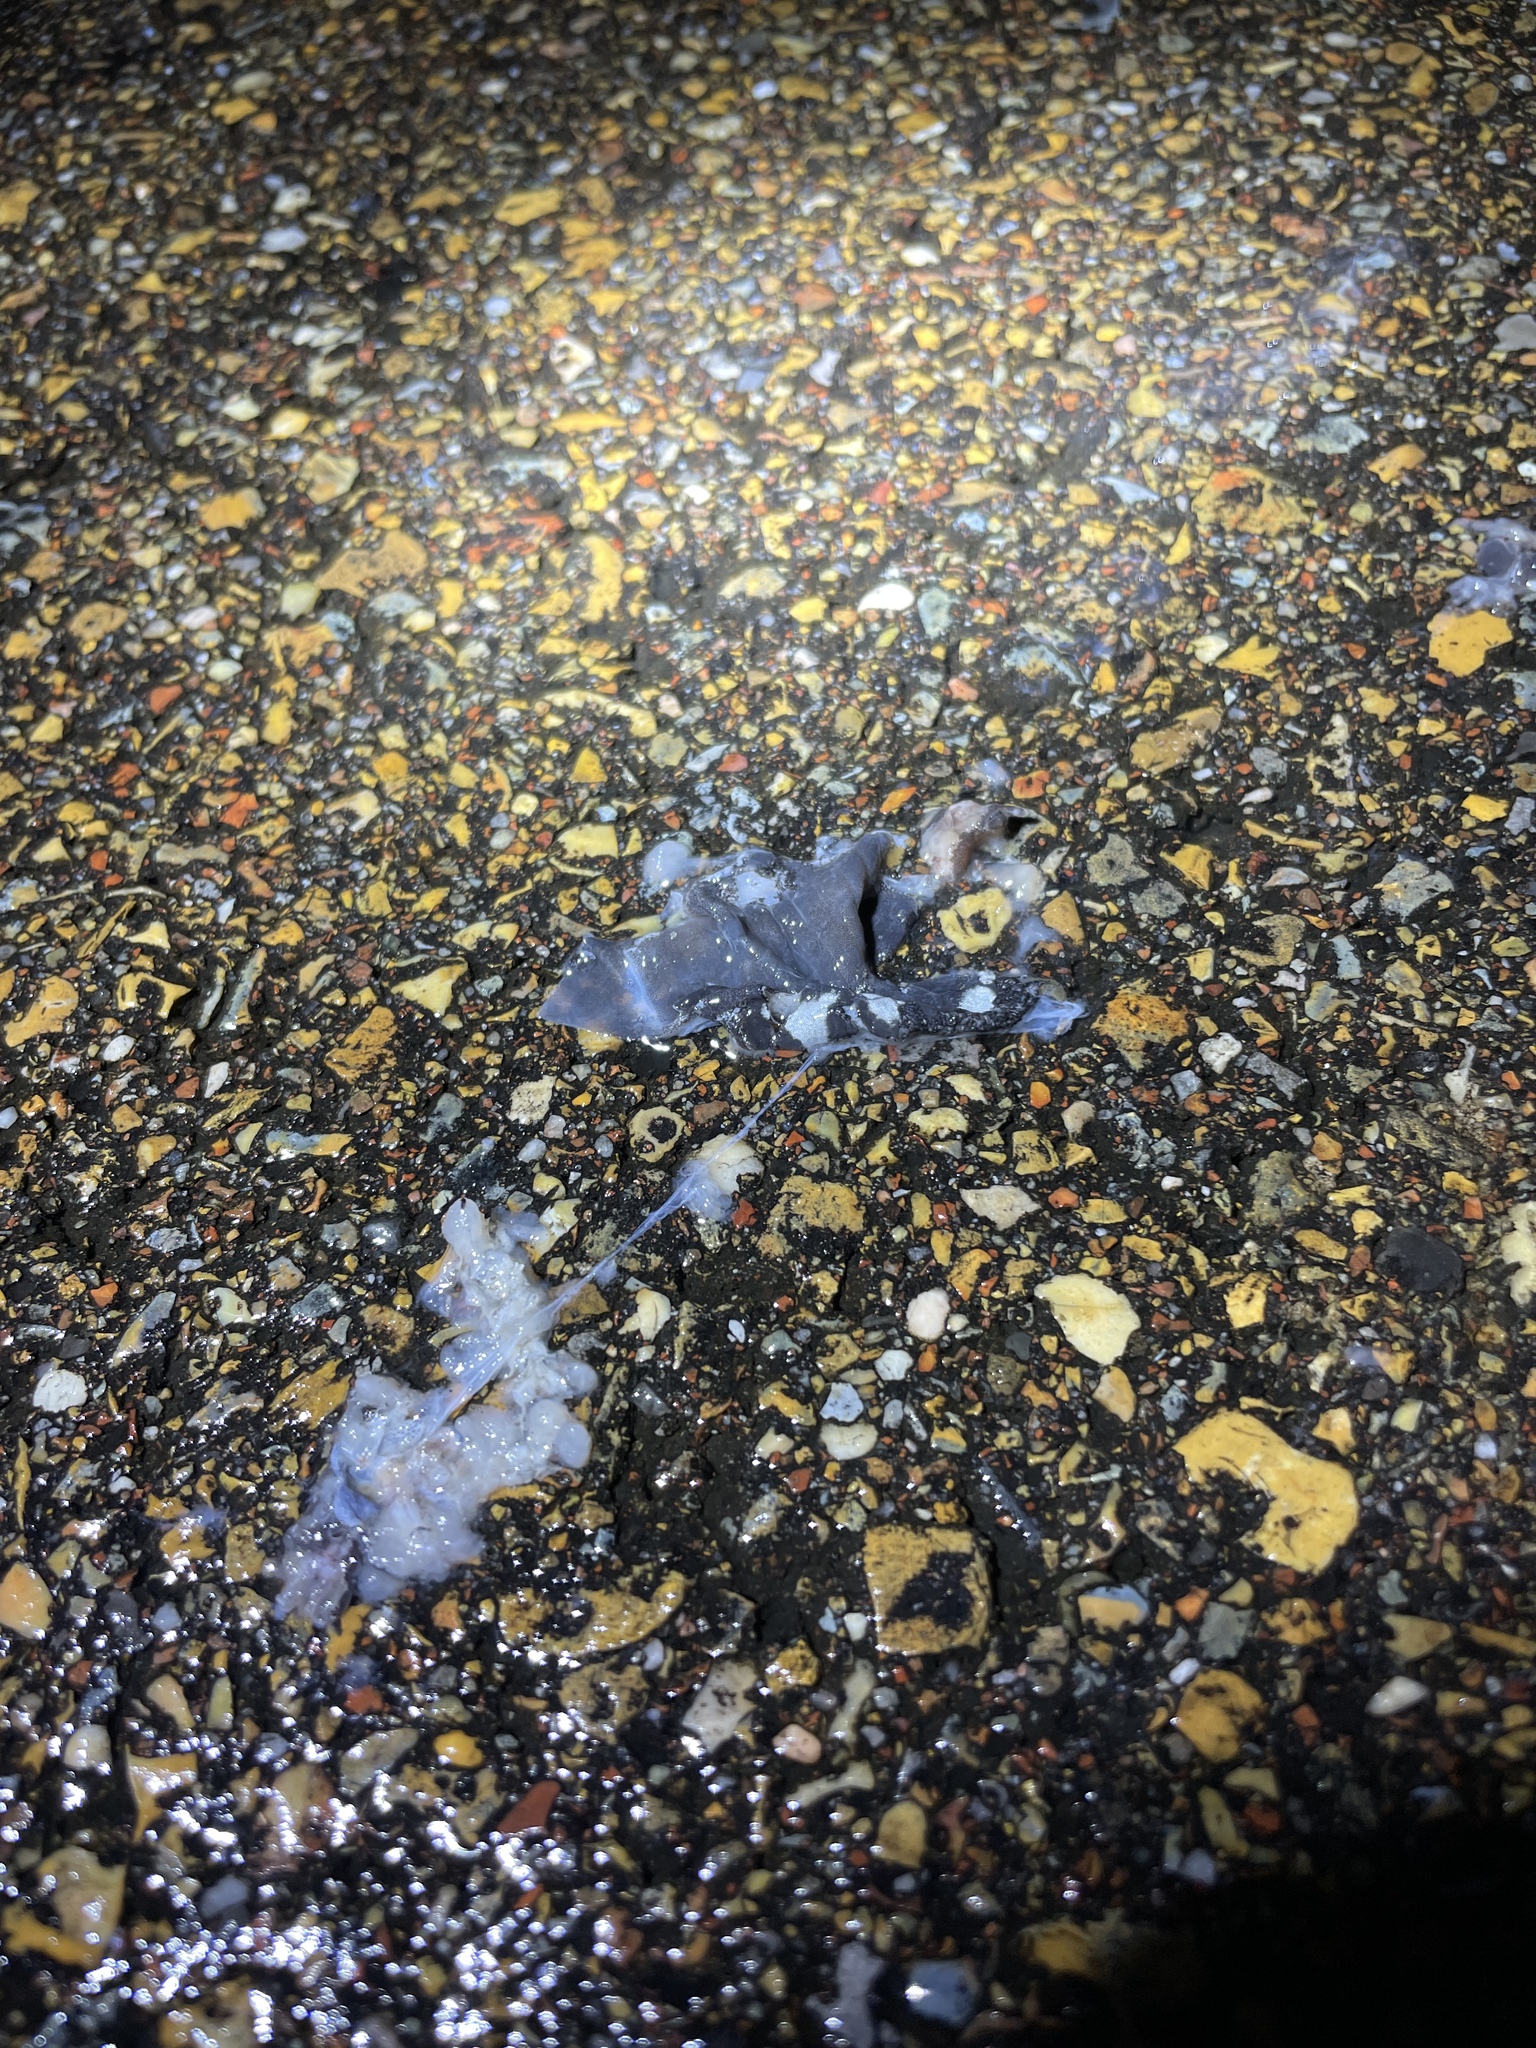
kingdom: Animalia
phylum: Chordata
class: Amphibia
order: Caudata
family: Ambystomatidae
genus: Ambystoma
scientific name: Ambystoma opacum
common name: Marbled salamander
